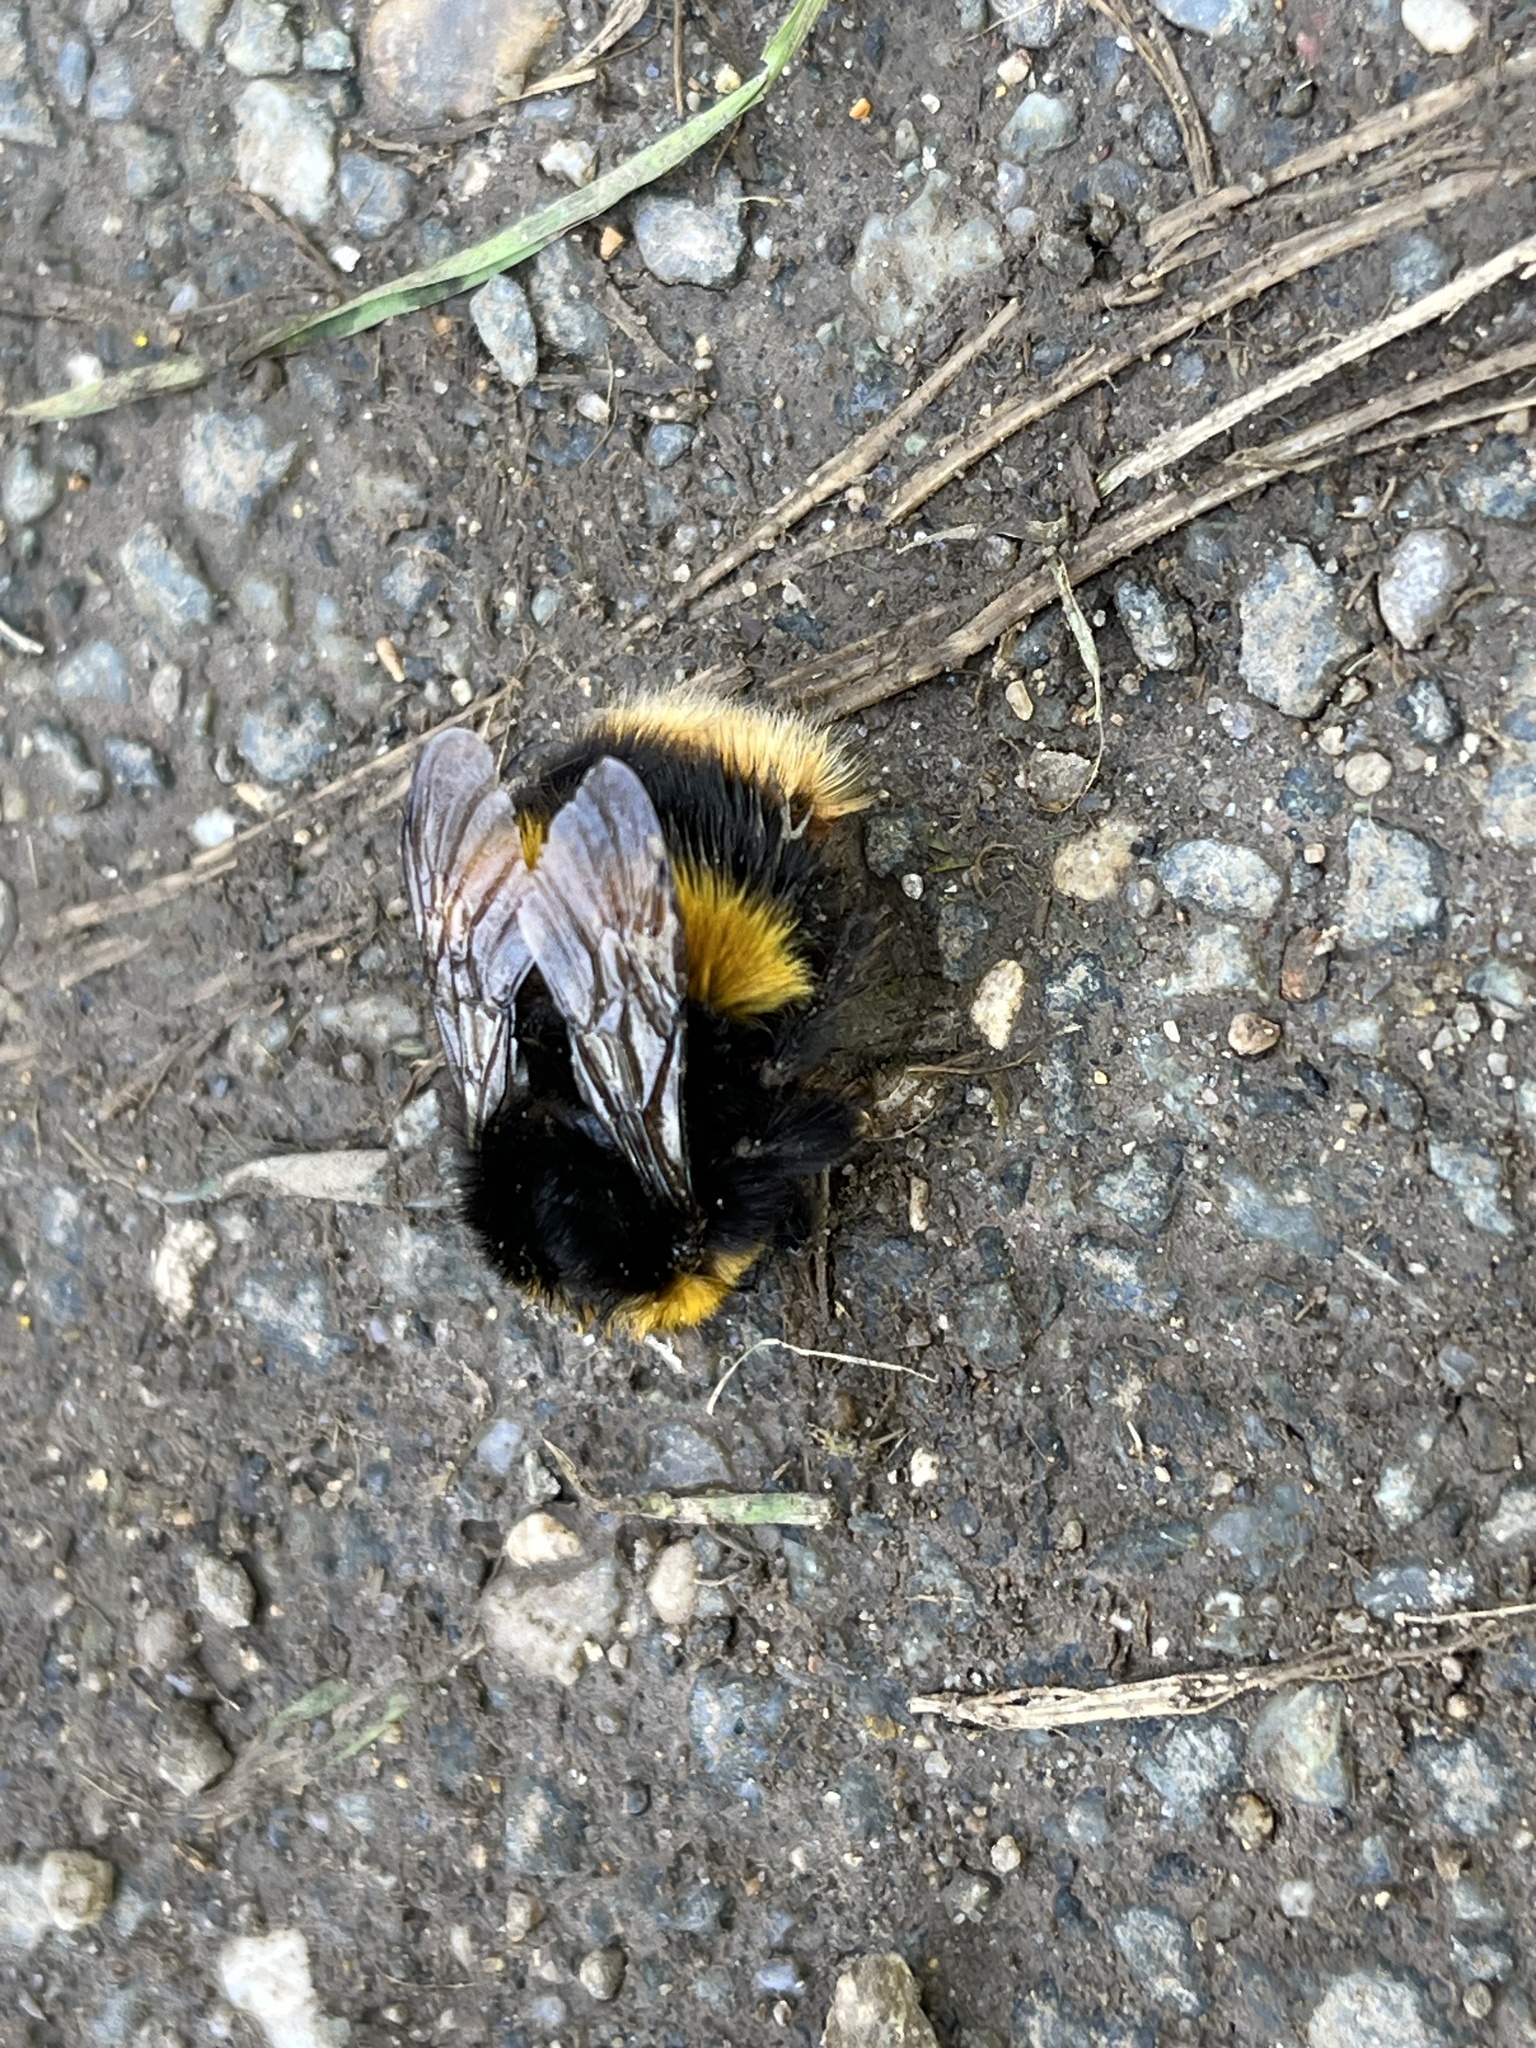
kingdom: Animalia
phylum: Arthropoda
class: Insecta
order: Hymenoptera
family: Apidae
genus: Bombus
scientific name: Bombus terrestris
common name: Buff-tailed bumblebee
